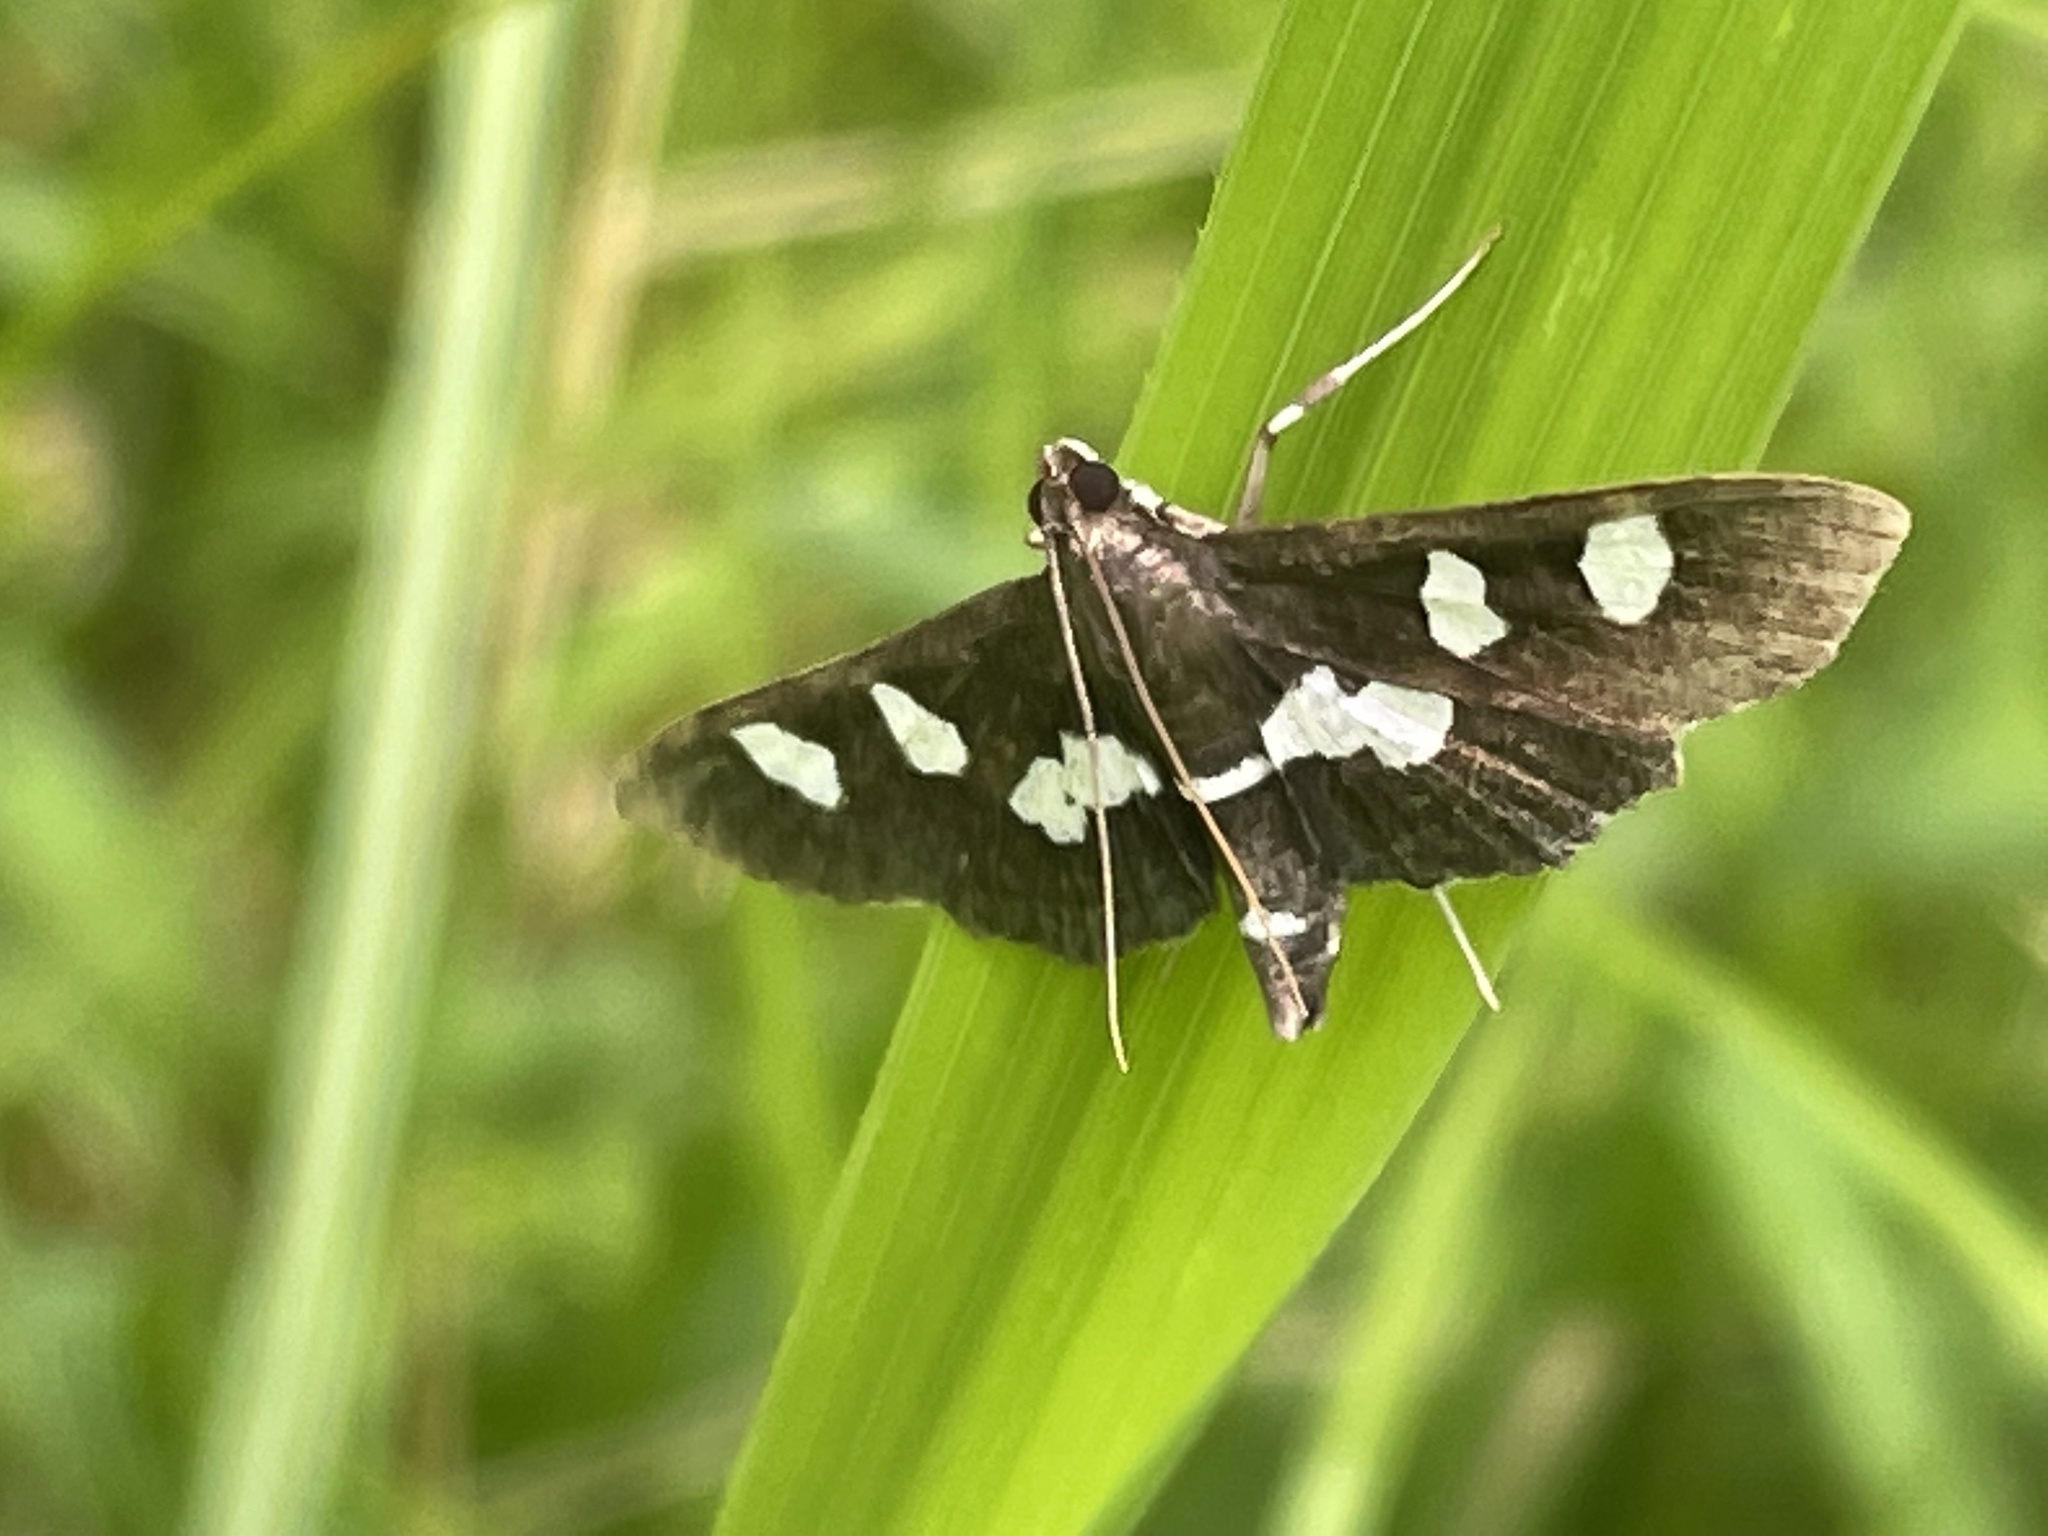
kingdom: Animalia
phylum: Arthropoda
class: Insecta
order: Lepidoptera
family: Crambidae
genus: Desmia
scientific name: Desmia
